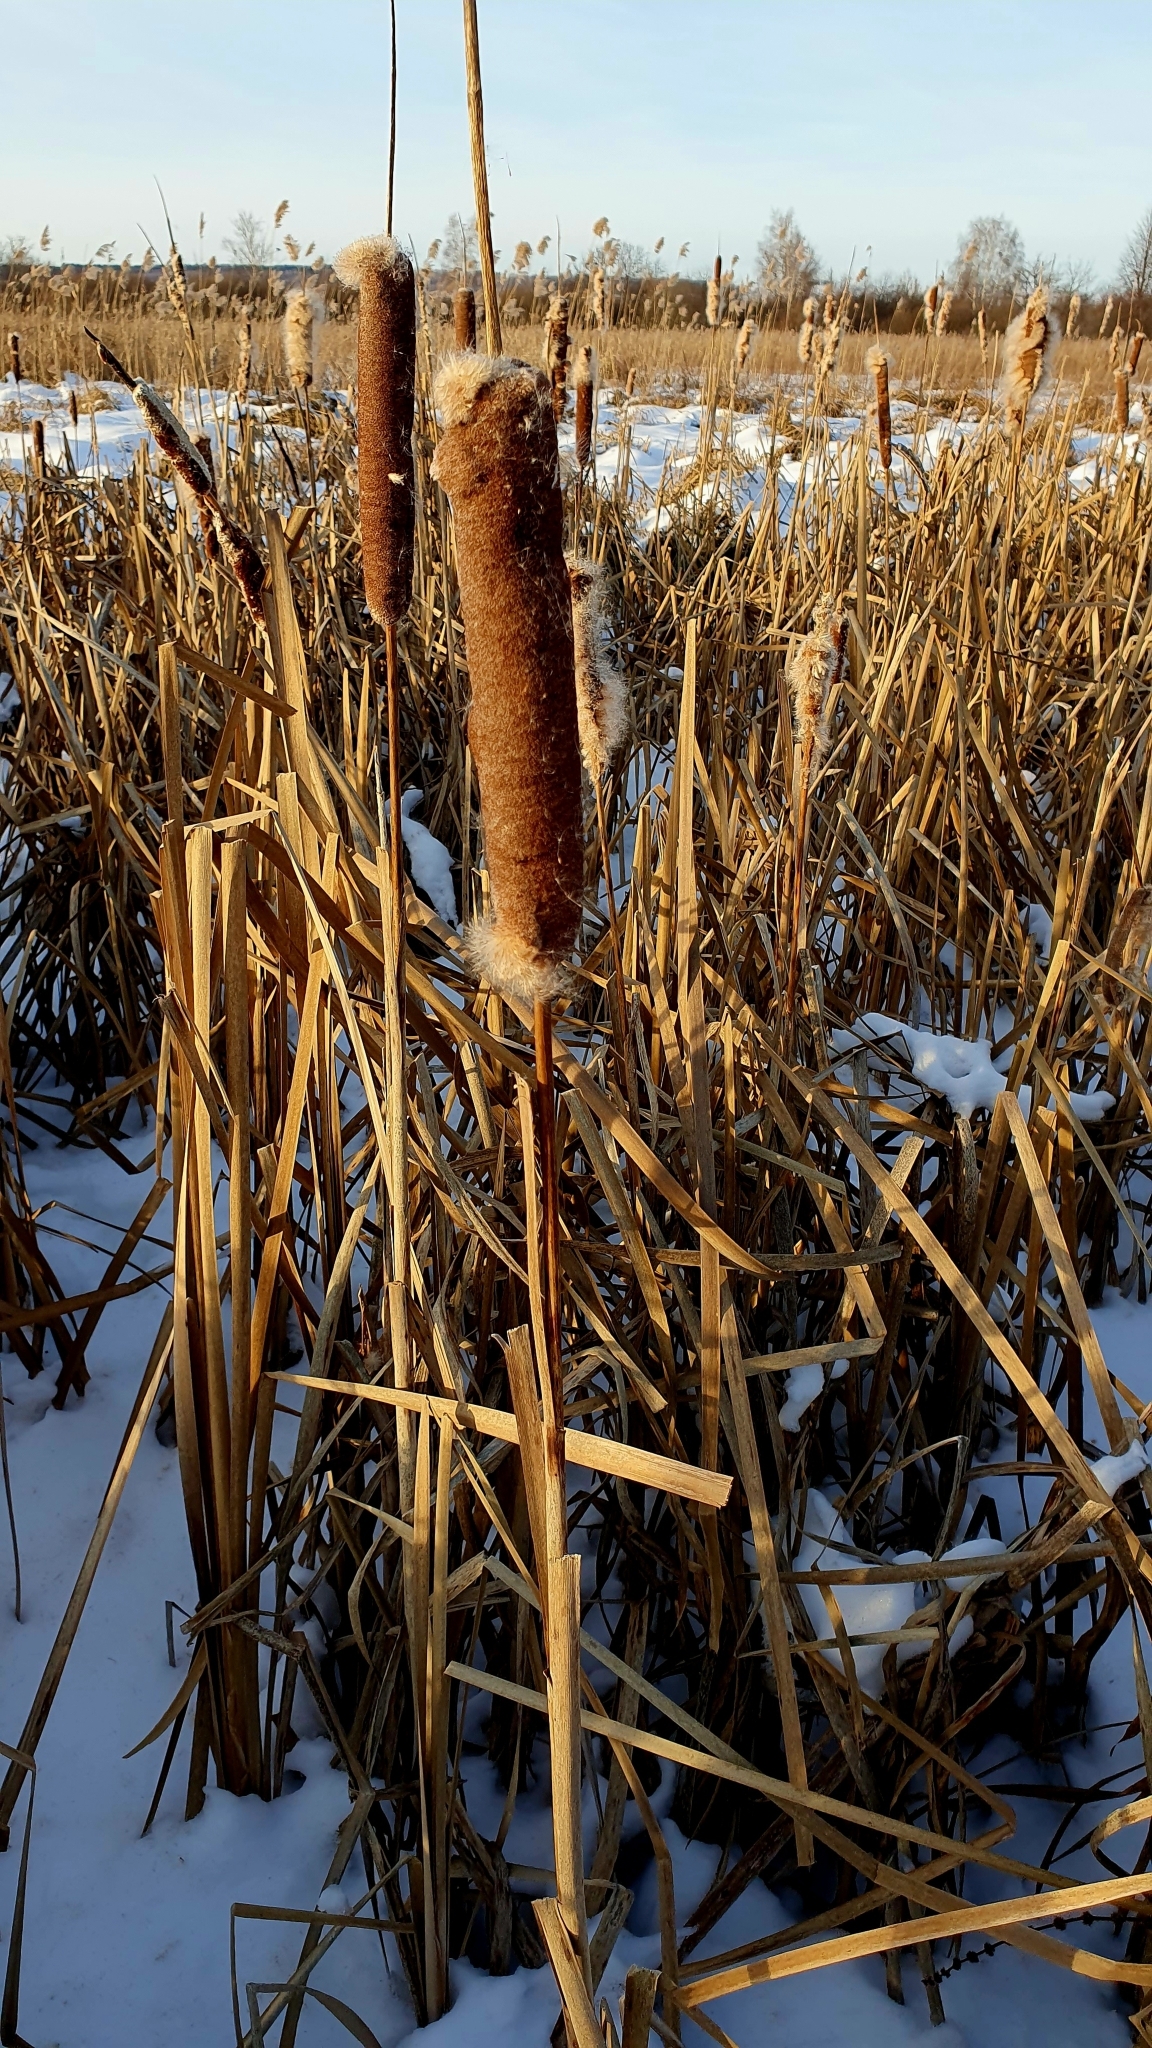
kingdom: Plantae
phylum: Tracheophyta
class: Liliopsida
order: Poales
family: Typhaceae
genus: Typha
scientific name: Typha latifolia
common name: Broadleaf cattail
